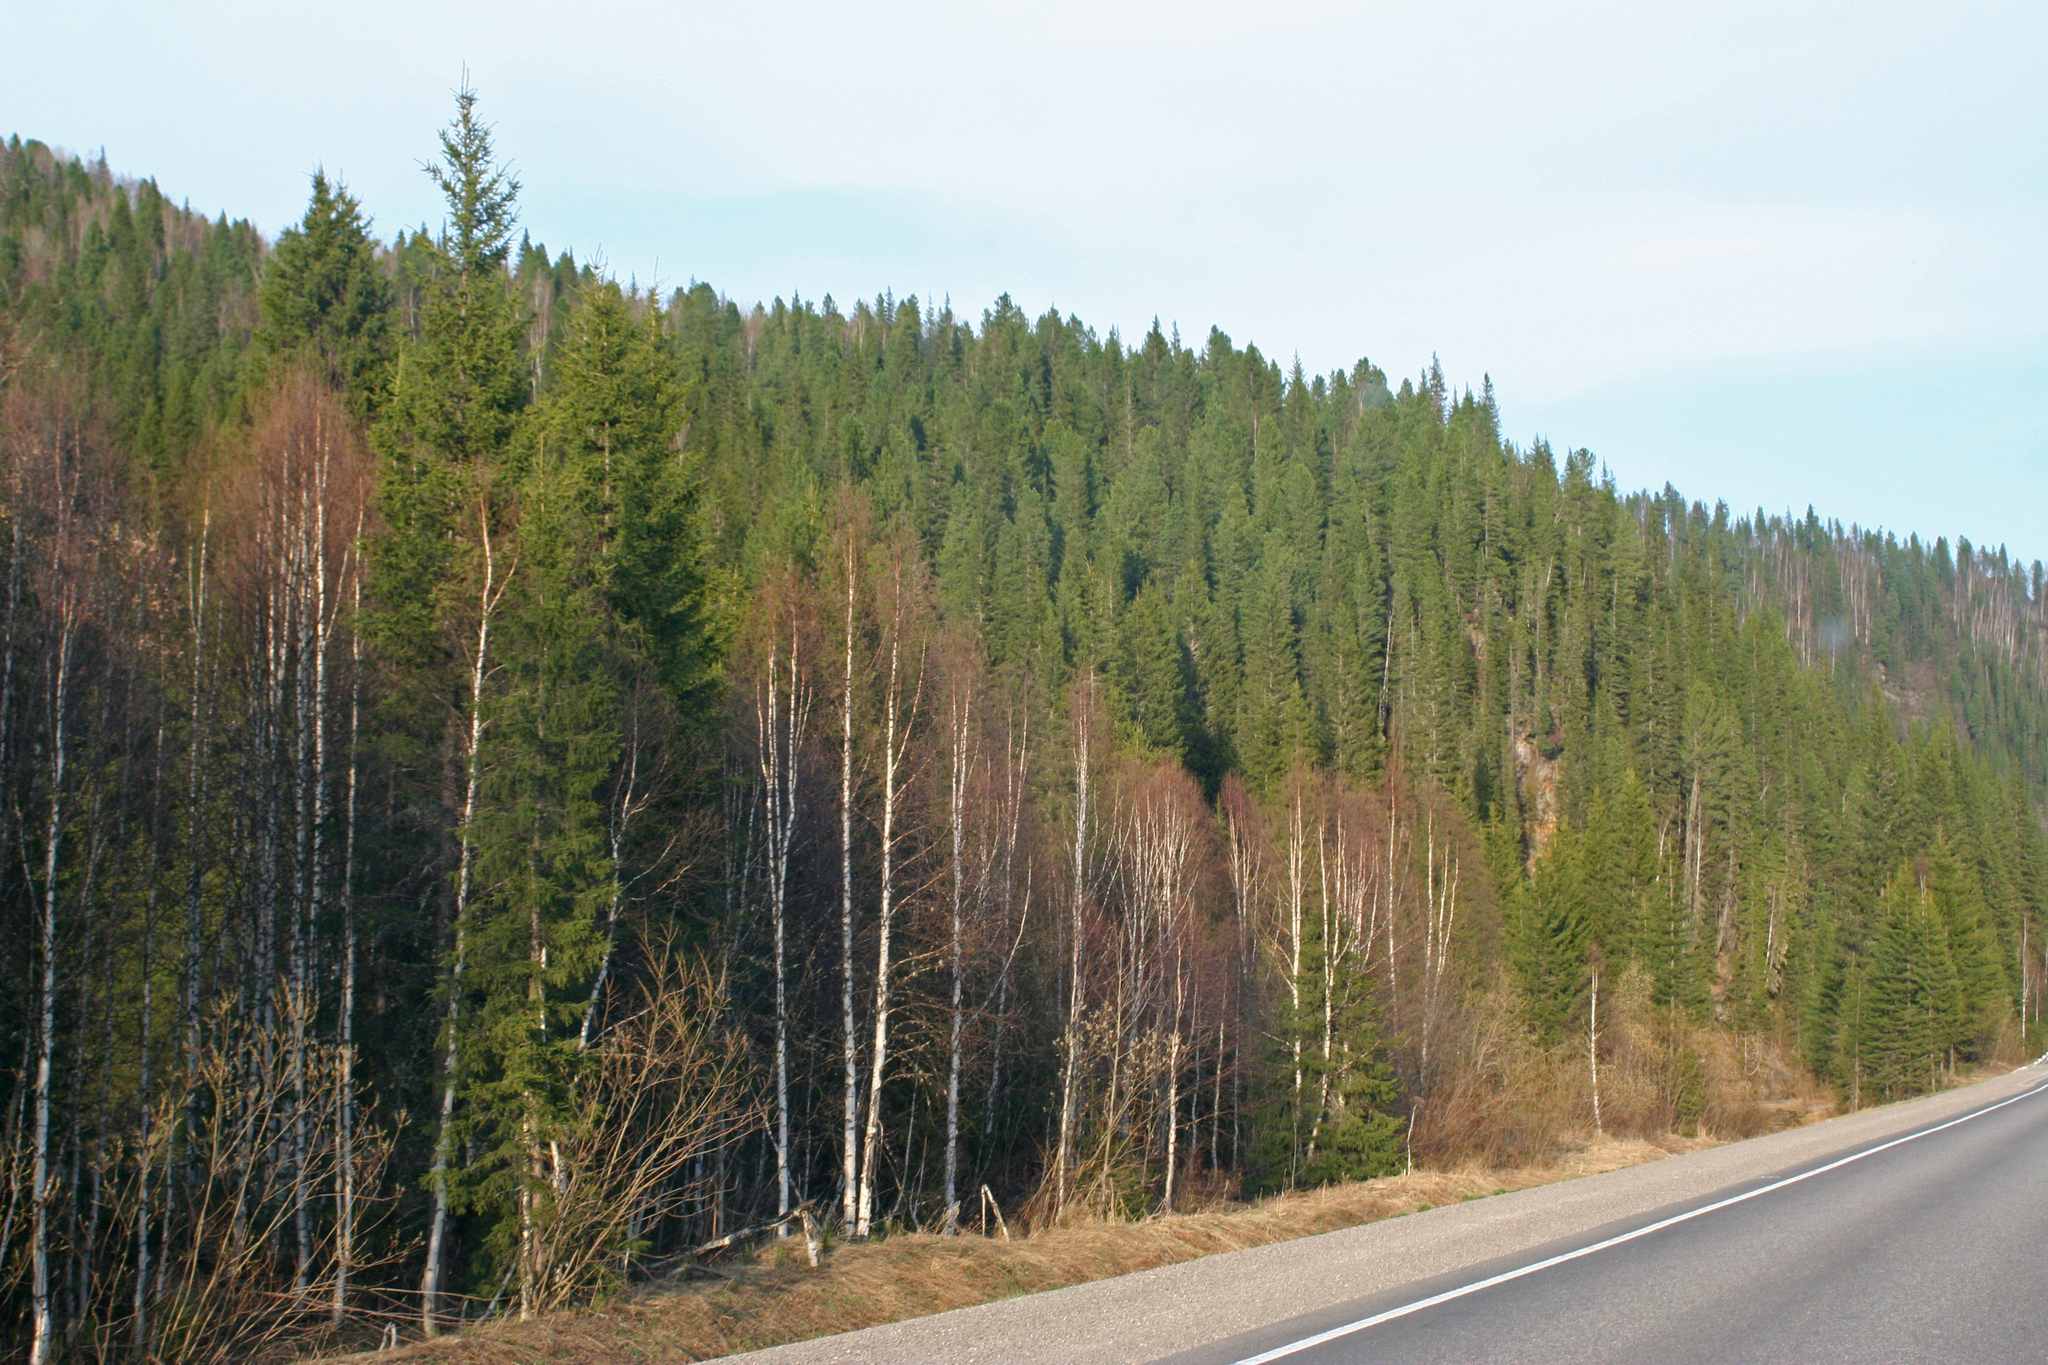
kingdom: Plantae
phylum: Tracheophyta
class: Pinopsida
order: Pinales
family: Pinaceae
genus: Picea
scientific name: Picea obovata
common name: Siberian spruce
